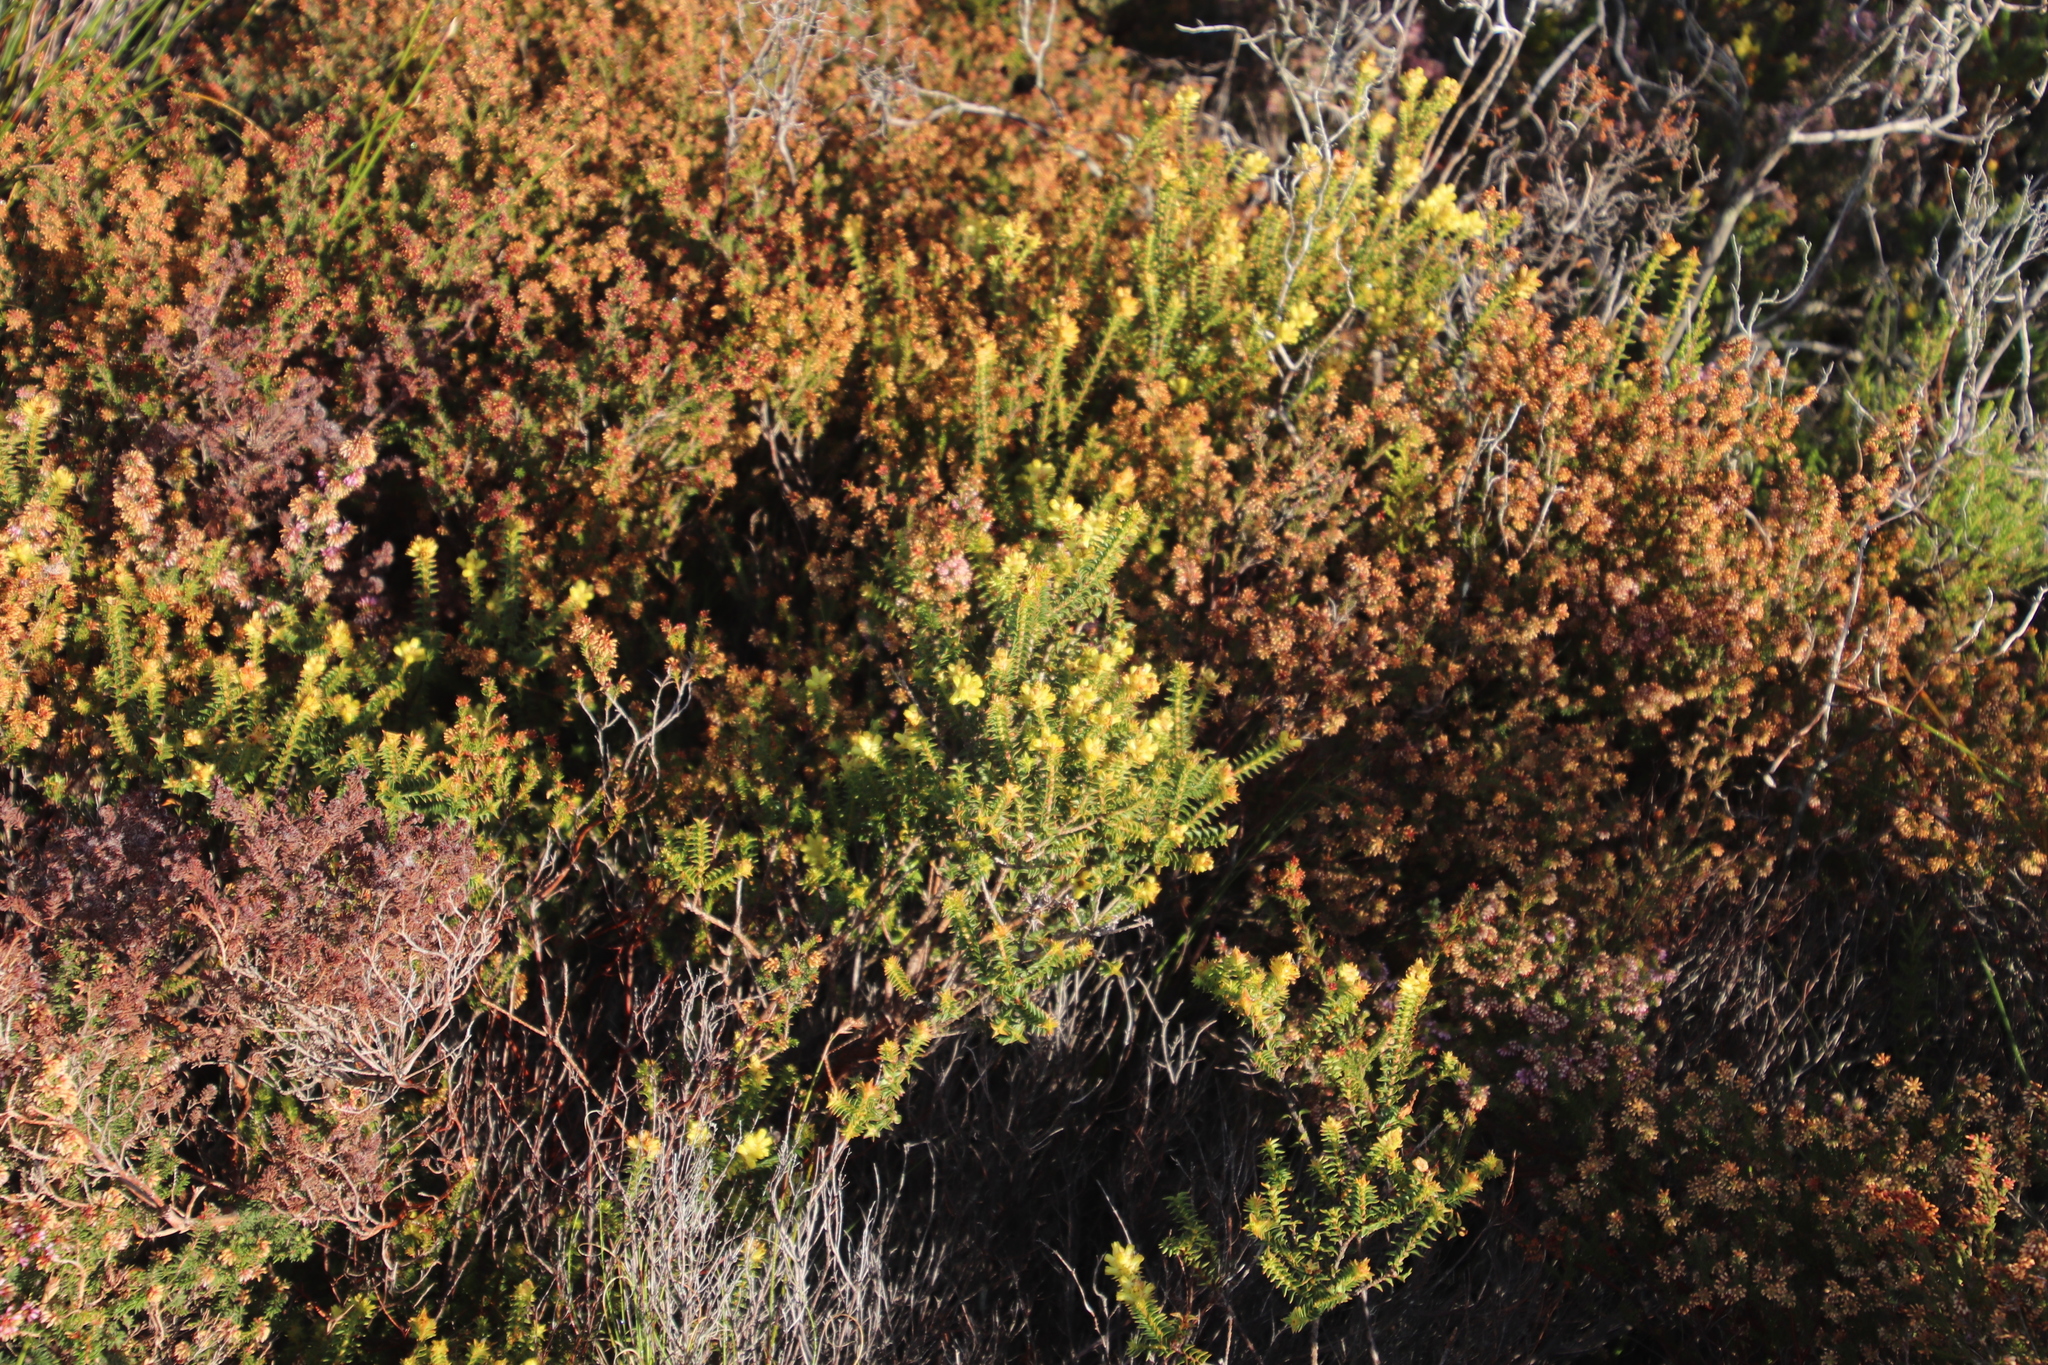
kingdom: Plantae
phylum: Tracheophyta
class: Magnoliopsida
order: Myrtales
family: Penaeaceae
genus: Penaea
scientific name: Penaea mucronata
